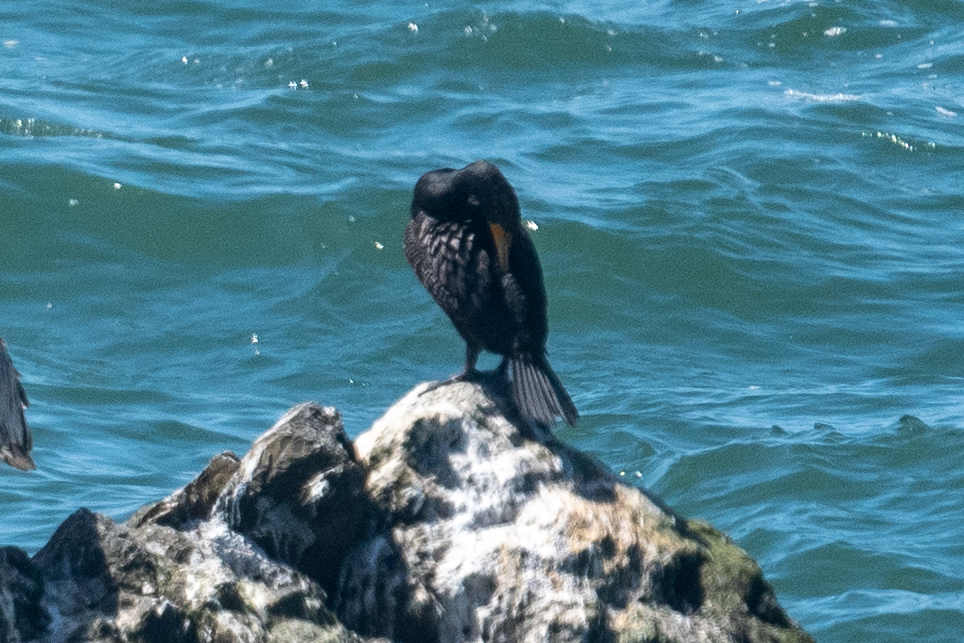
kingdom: Animalia
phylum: Chordata
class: Aves
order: Suliformes
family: Phalacrocoracidae
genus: Phalacrocorax
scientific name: Phalacrocorax auritus
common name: Double-crested cormorant
